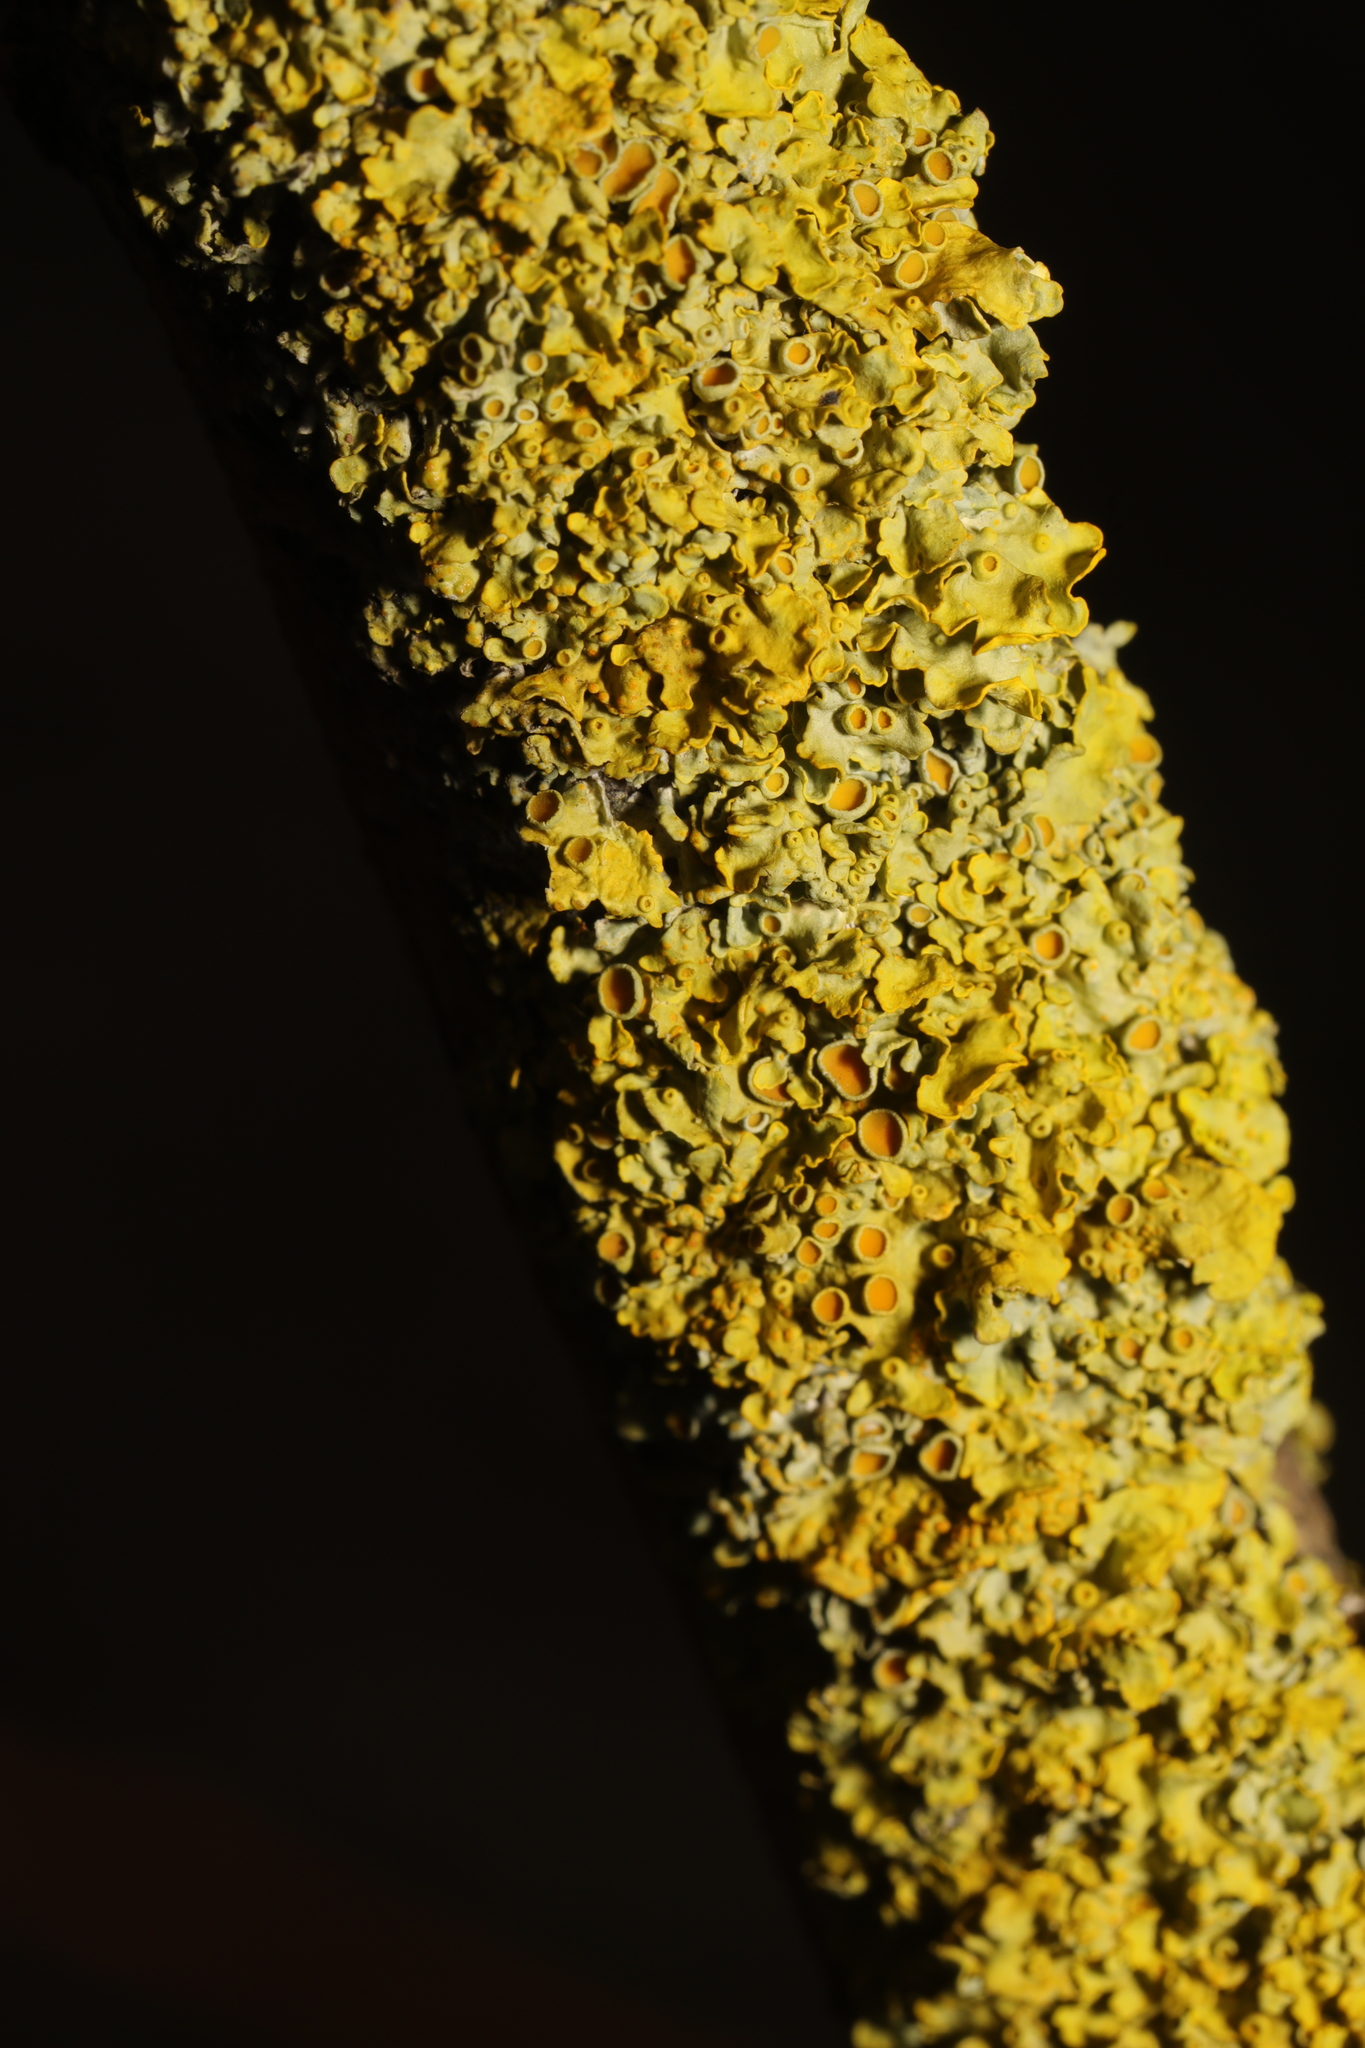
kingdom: Fungi
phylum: Ascomycota
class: Lecanoromycetes
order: Teloschistales
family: Teloschistaceae
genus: Xanthoria
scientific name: Xanthoria parietina
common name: Common orange lichen
